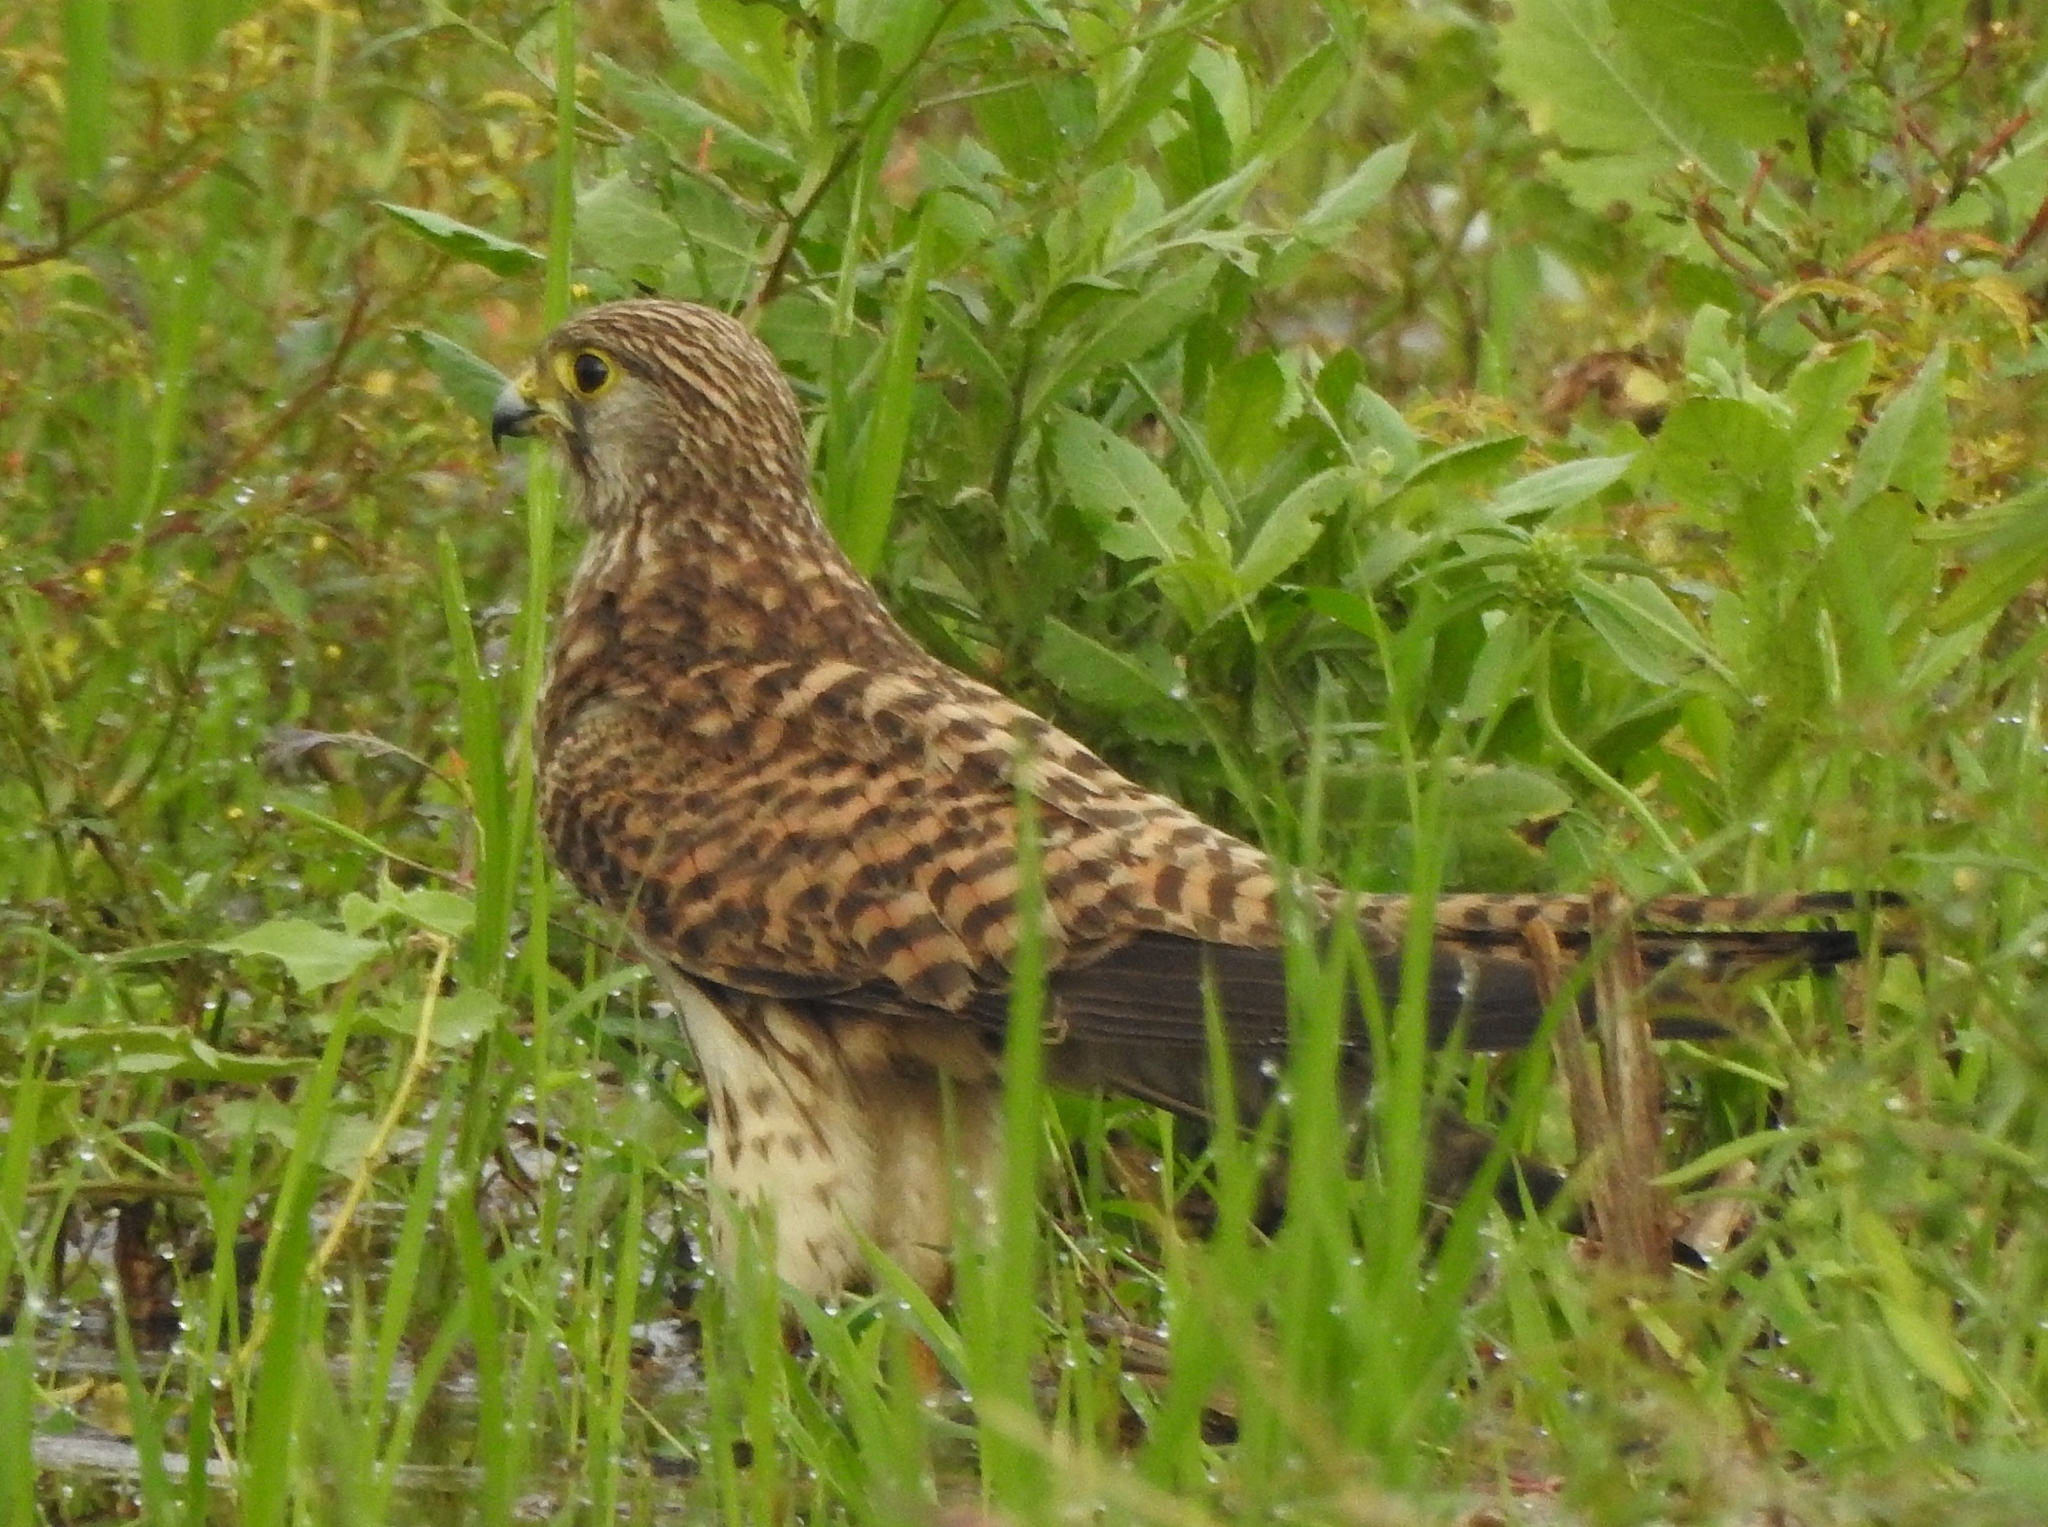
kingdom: Animalia
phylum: Chordata
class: Aves
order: Falconiformes
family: Falconidae
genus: Falco
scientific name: Falco tinnunculus
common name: Common kestrel
